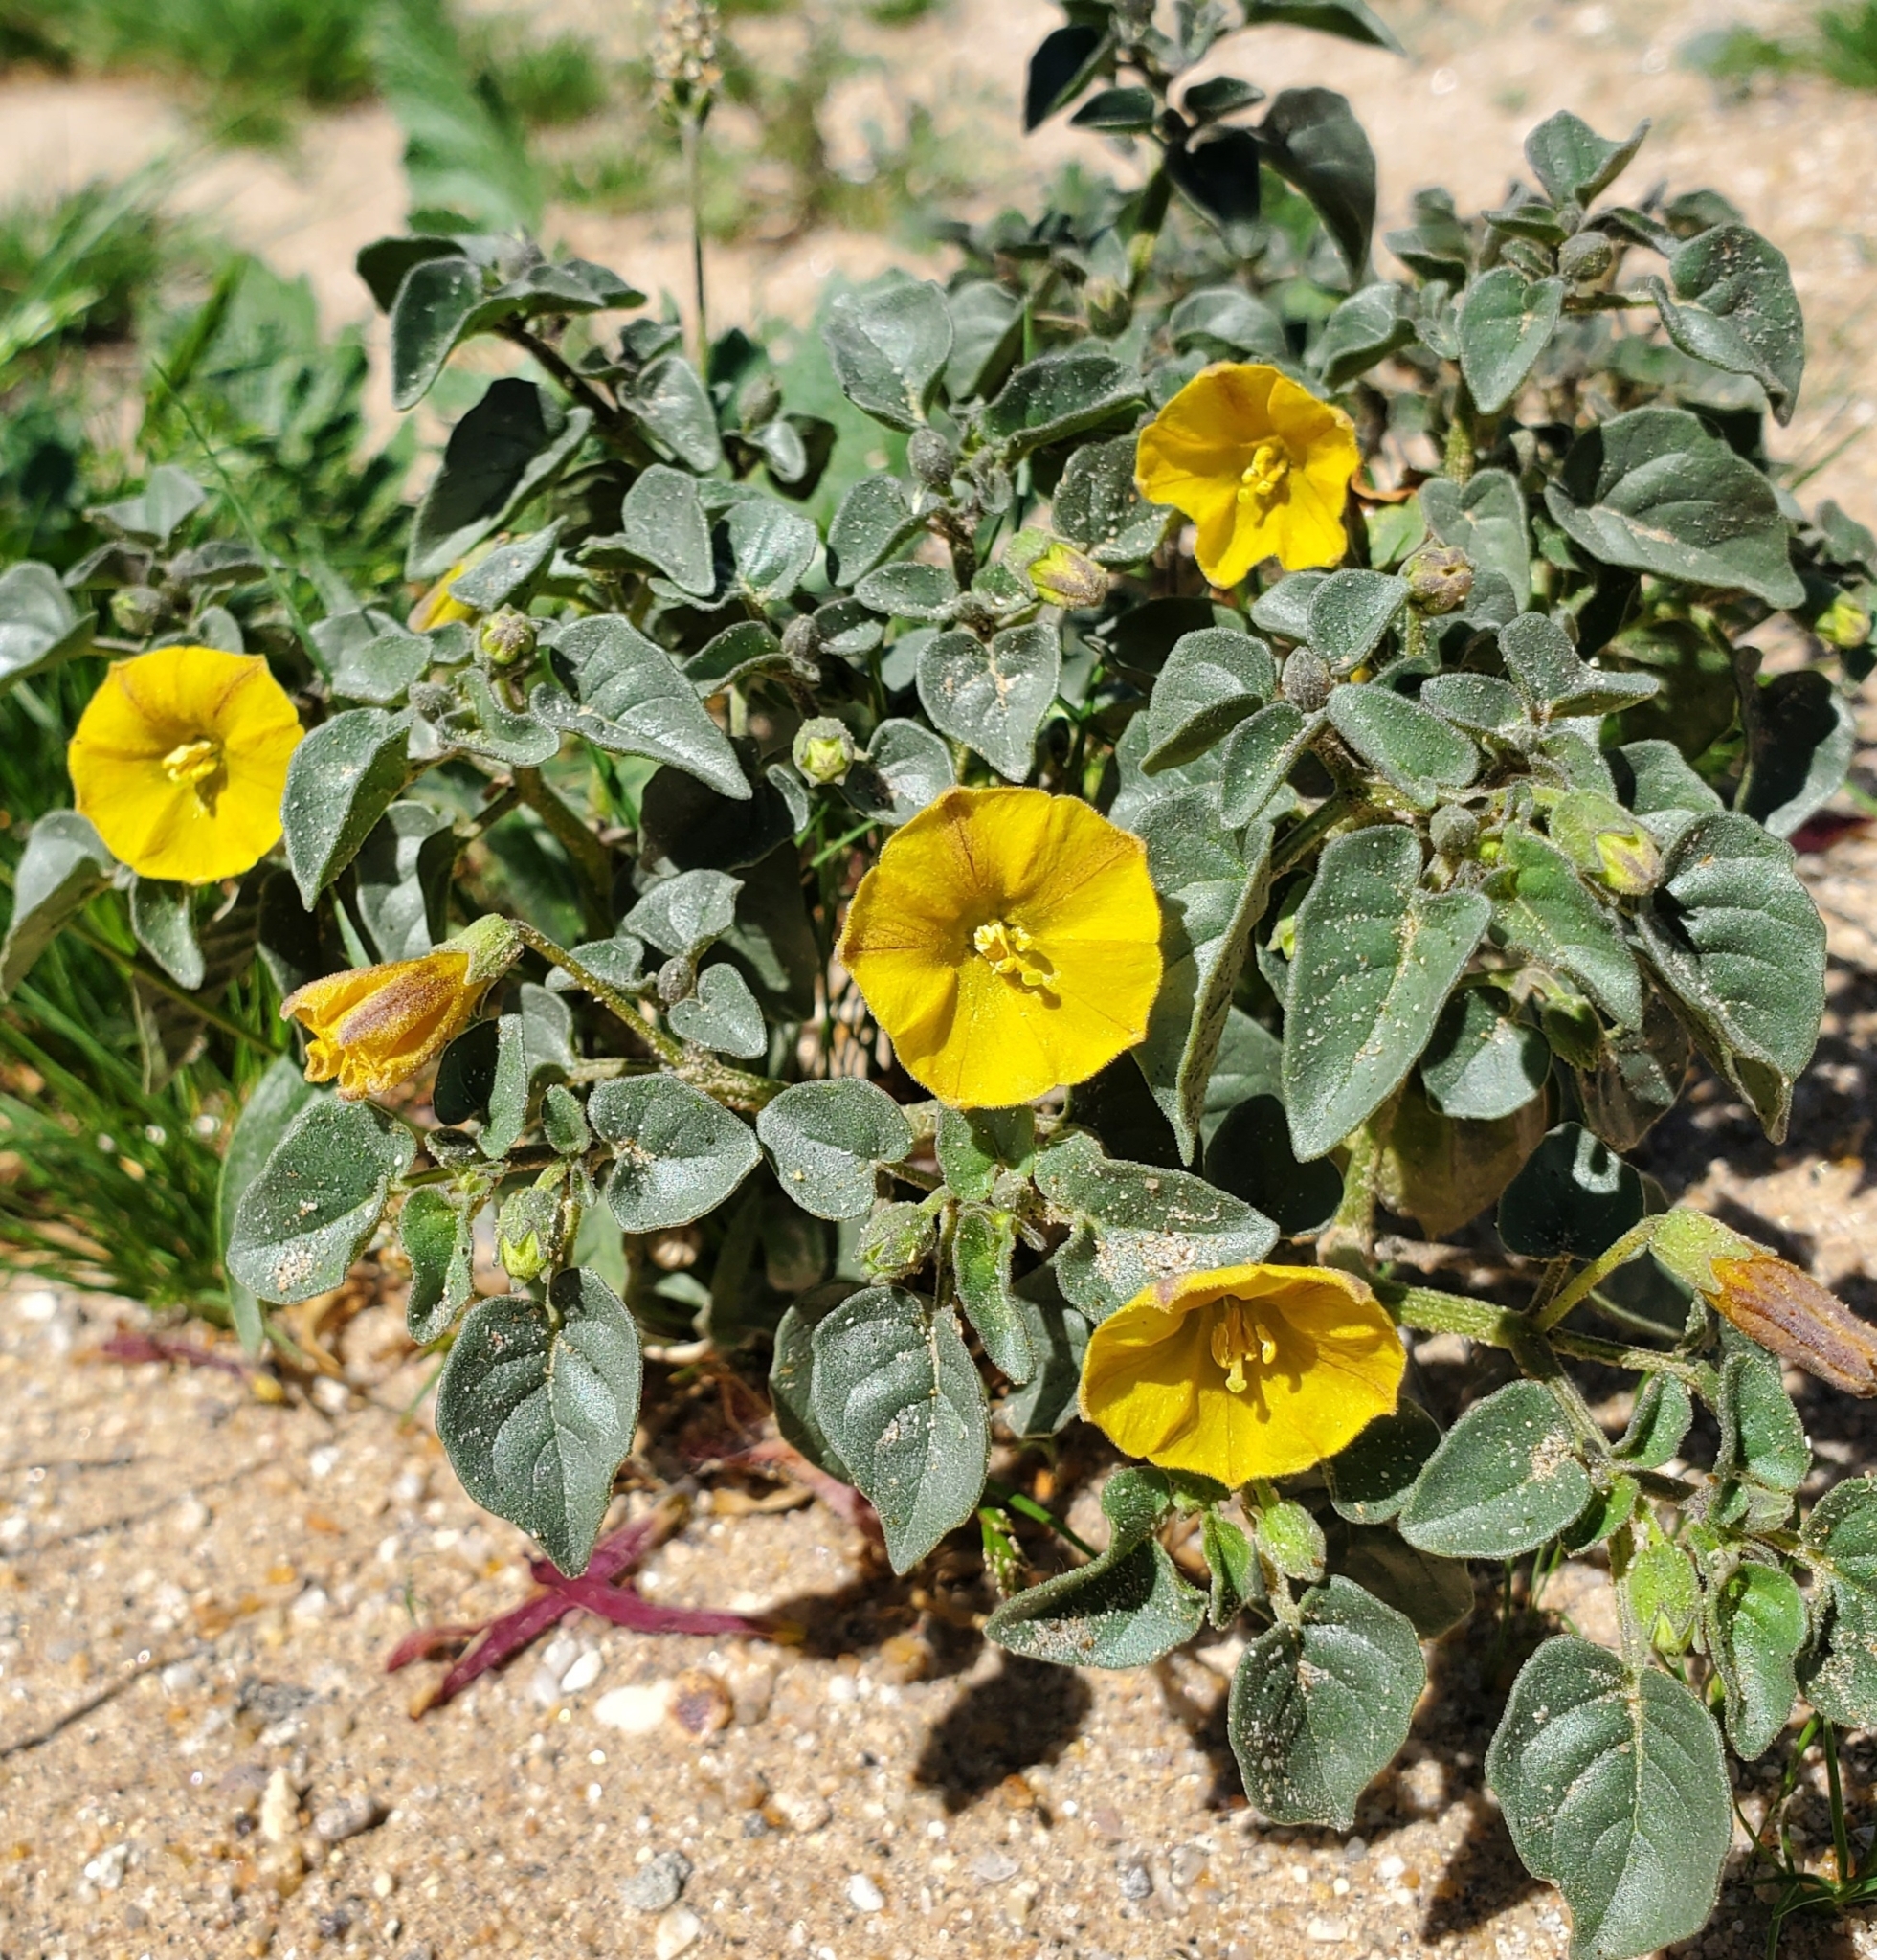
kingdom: Plantae
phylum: Tracheophyta
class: Magnoliopsida
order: Solanales
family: Solanaceae
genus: Physalis
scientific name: Physalis crassifolia
